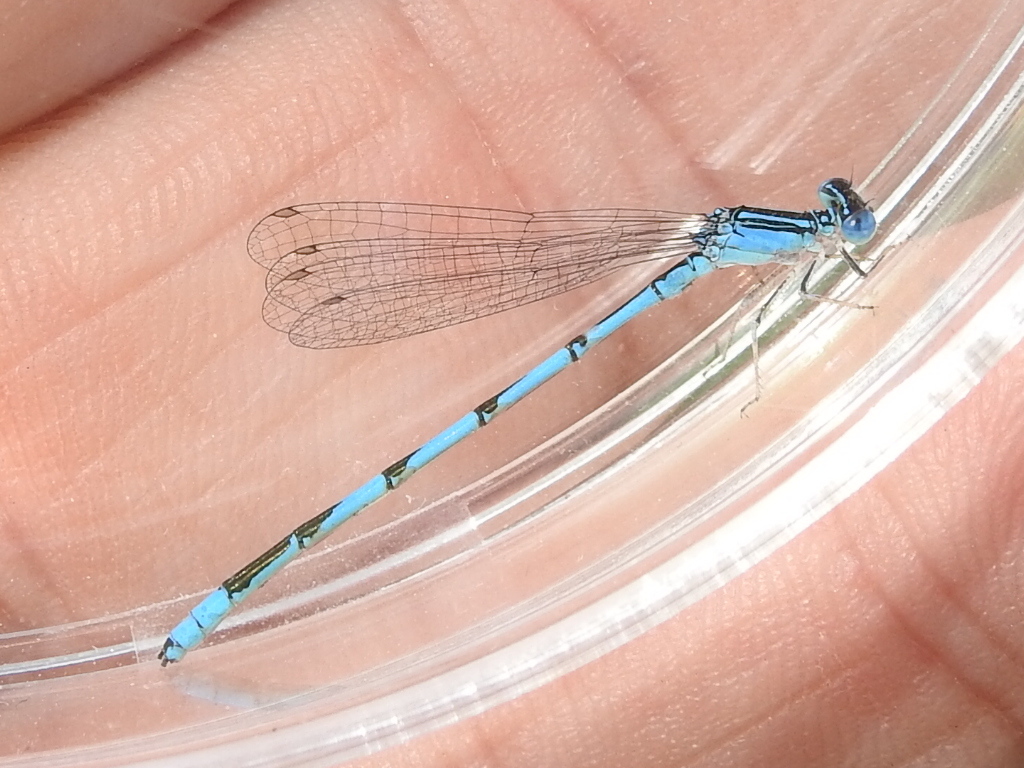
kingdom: Animalia
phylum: Arthropoda
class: Insecta
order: Odonata
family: Coenagrionidae
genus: Enallagma
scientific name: Enallagma basidens
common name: Double-striped bluet
